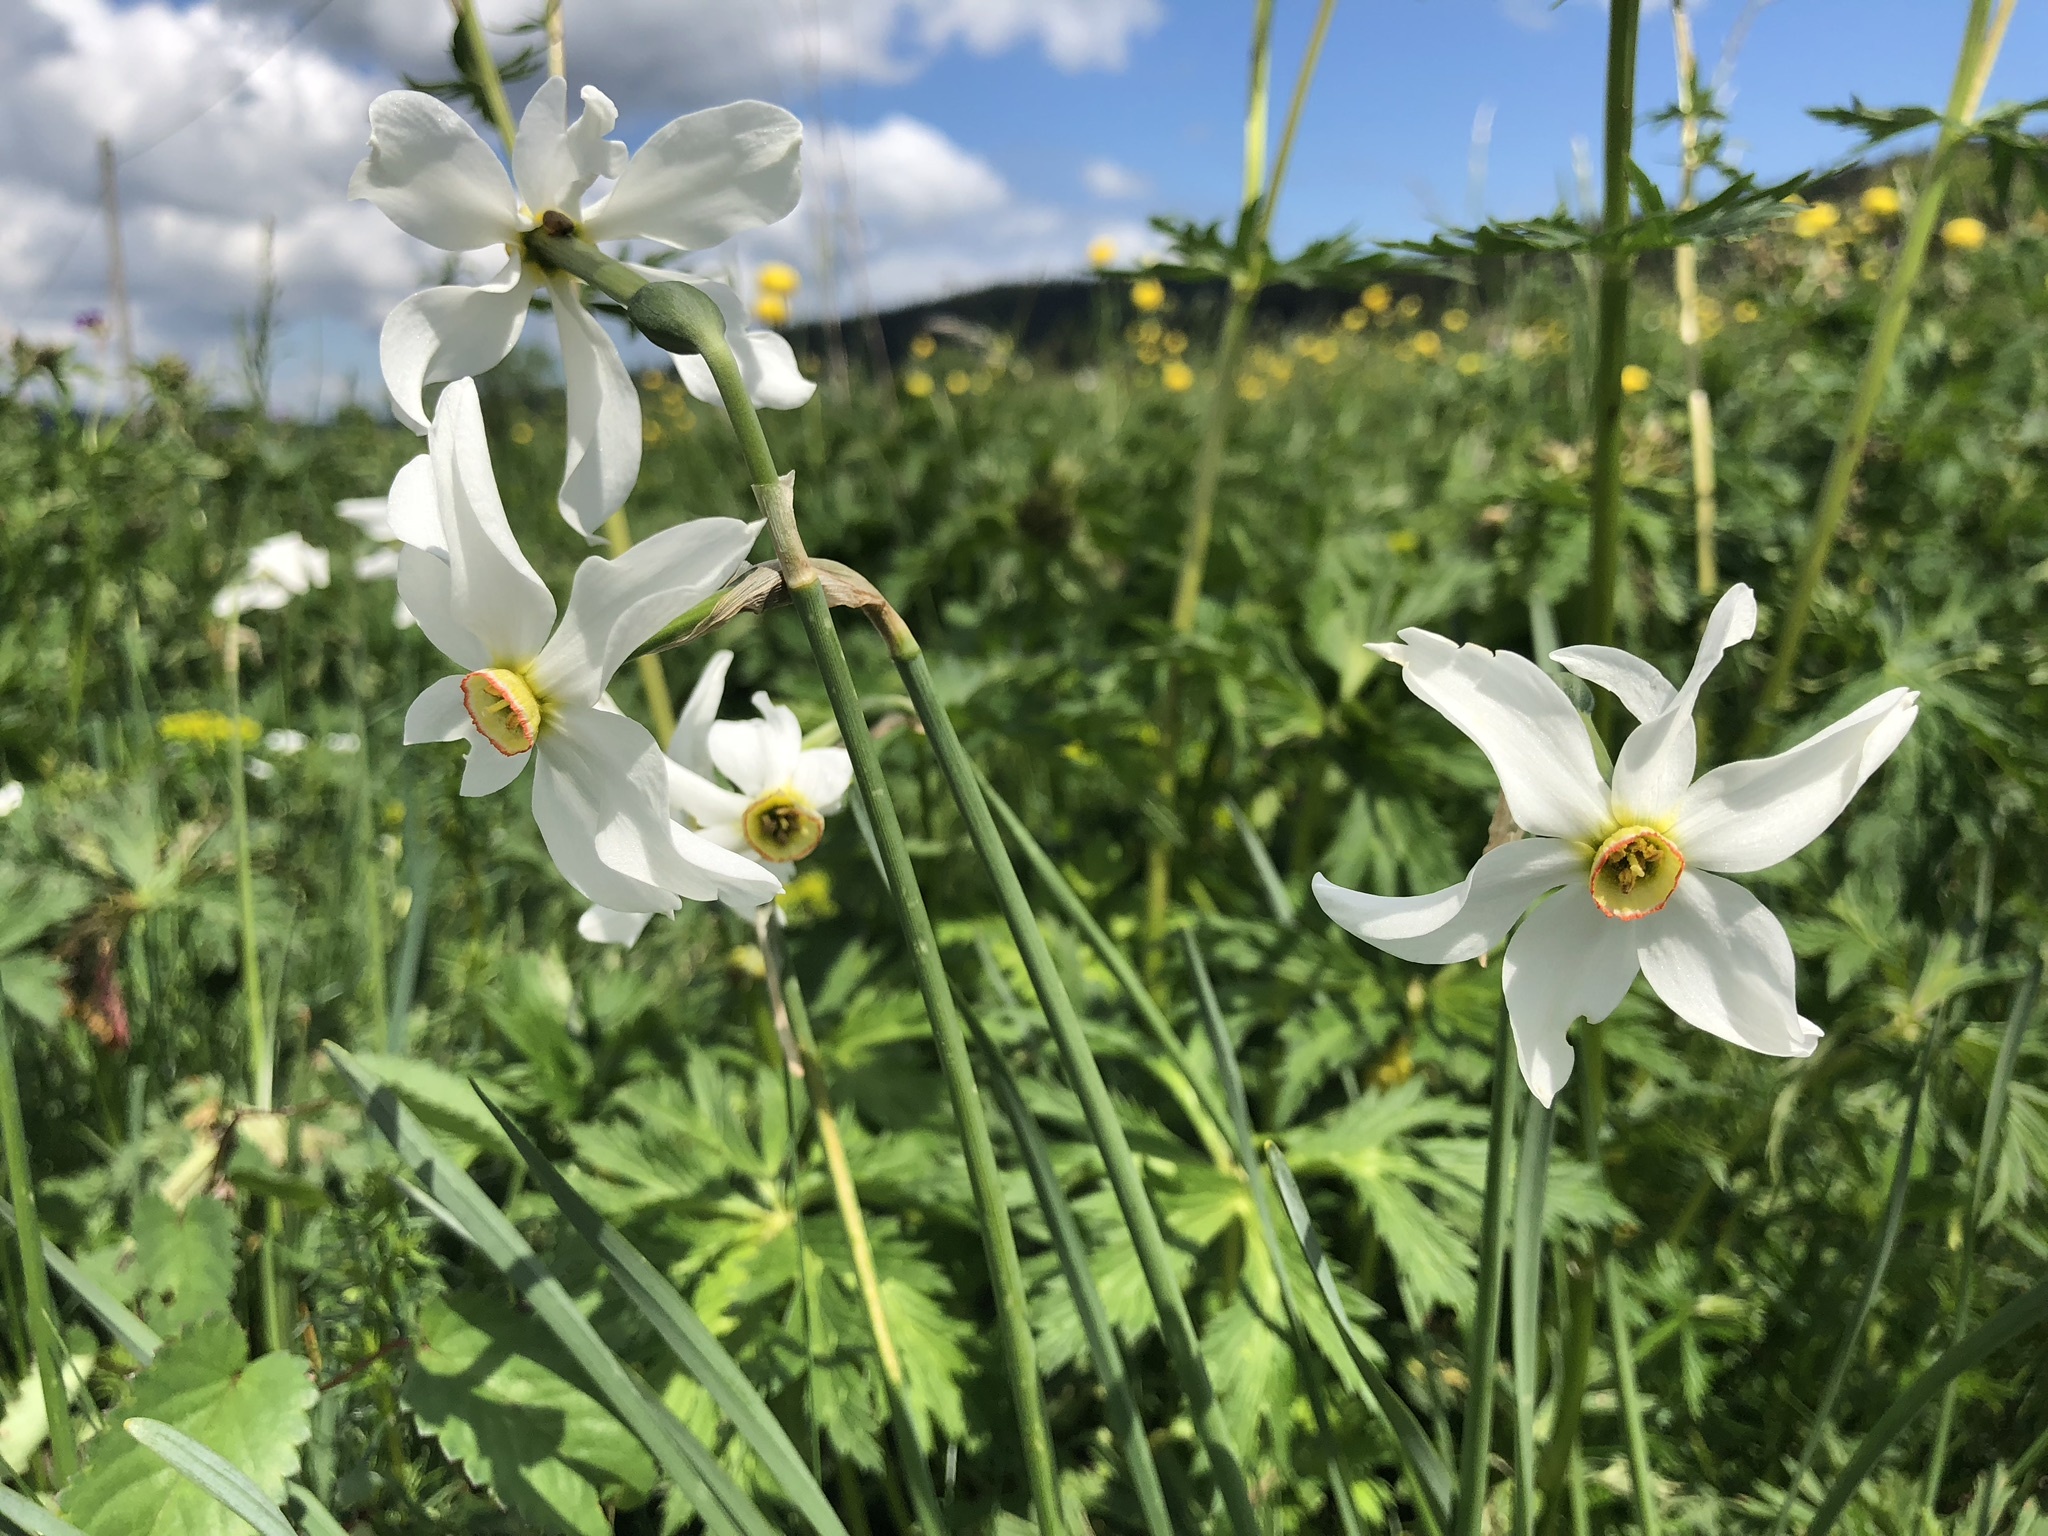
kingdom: Plantae
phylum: Tracheophyta
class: Liliopsida
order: Asparagales
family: Amaryllidaceae
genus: Narcissus
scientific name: Narcissus poeticus
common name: Pheasant's-eye daffodil
